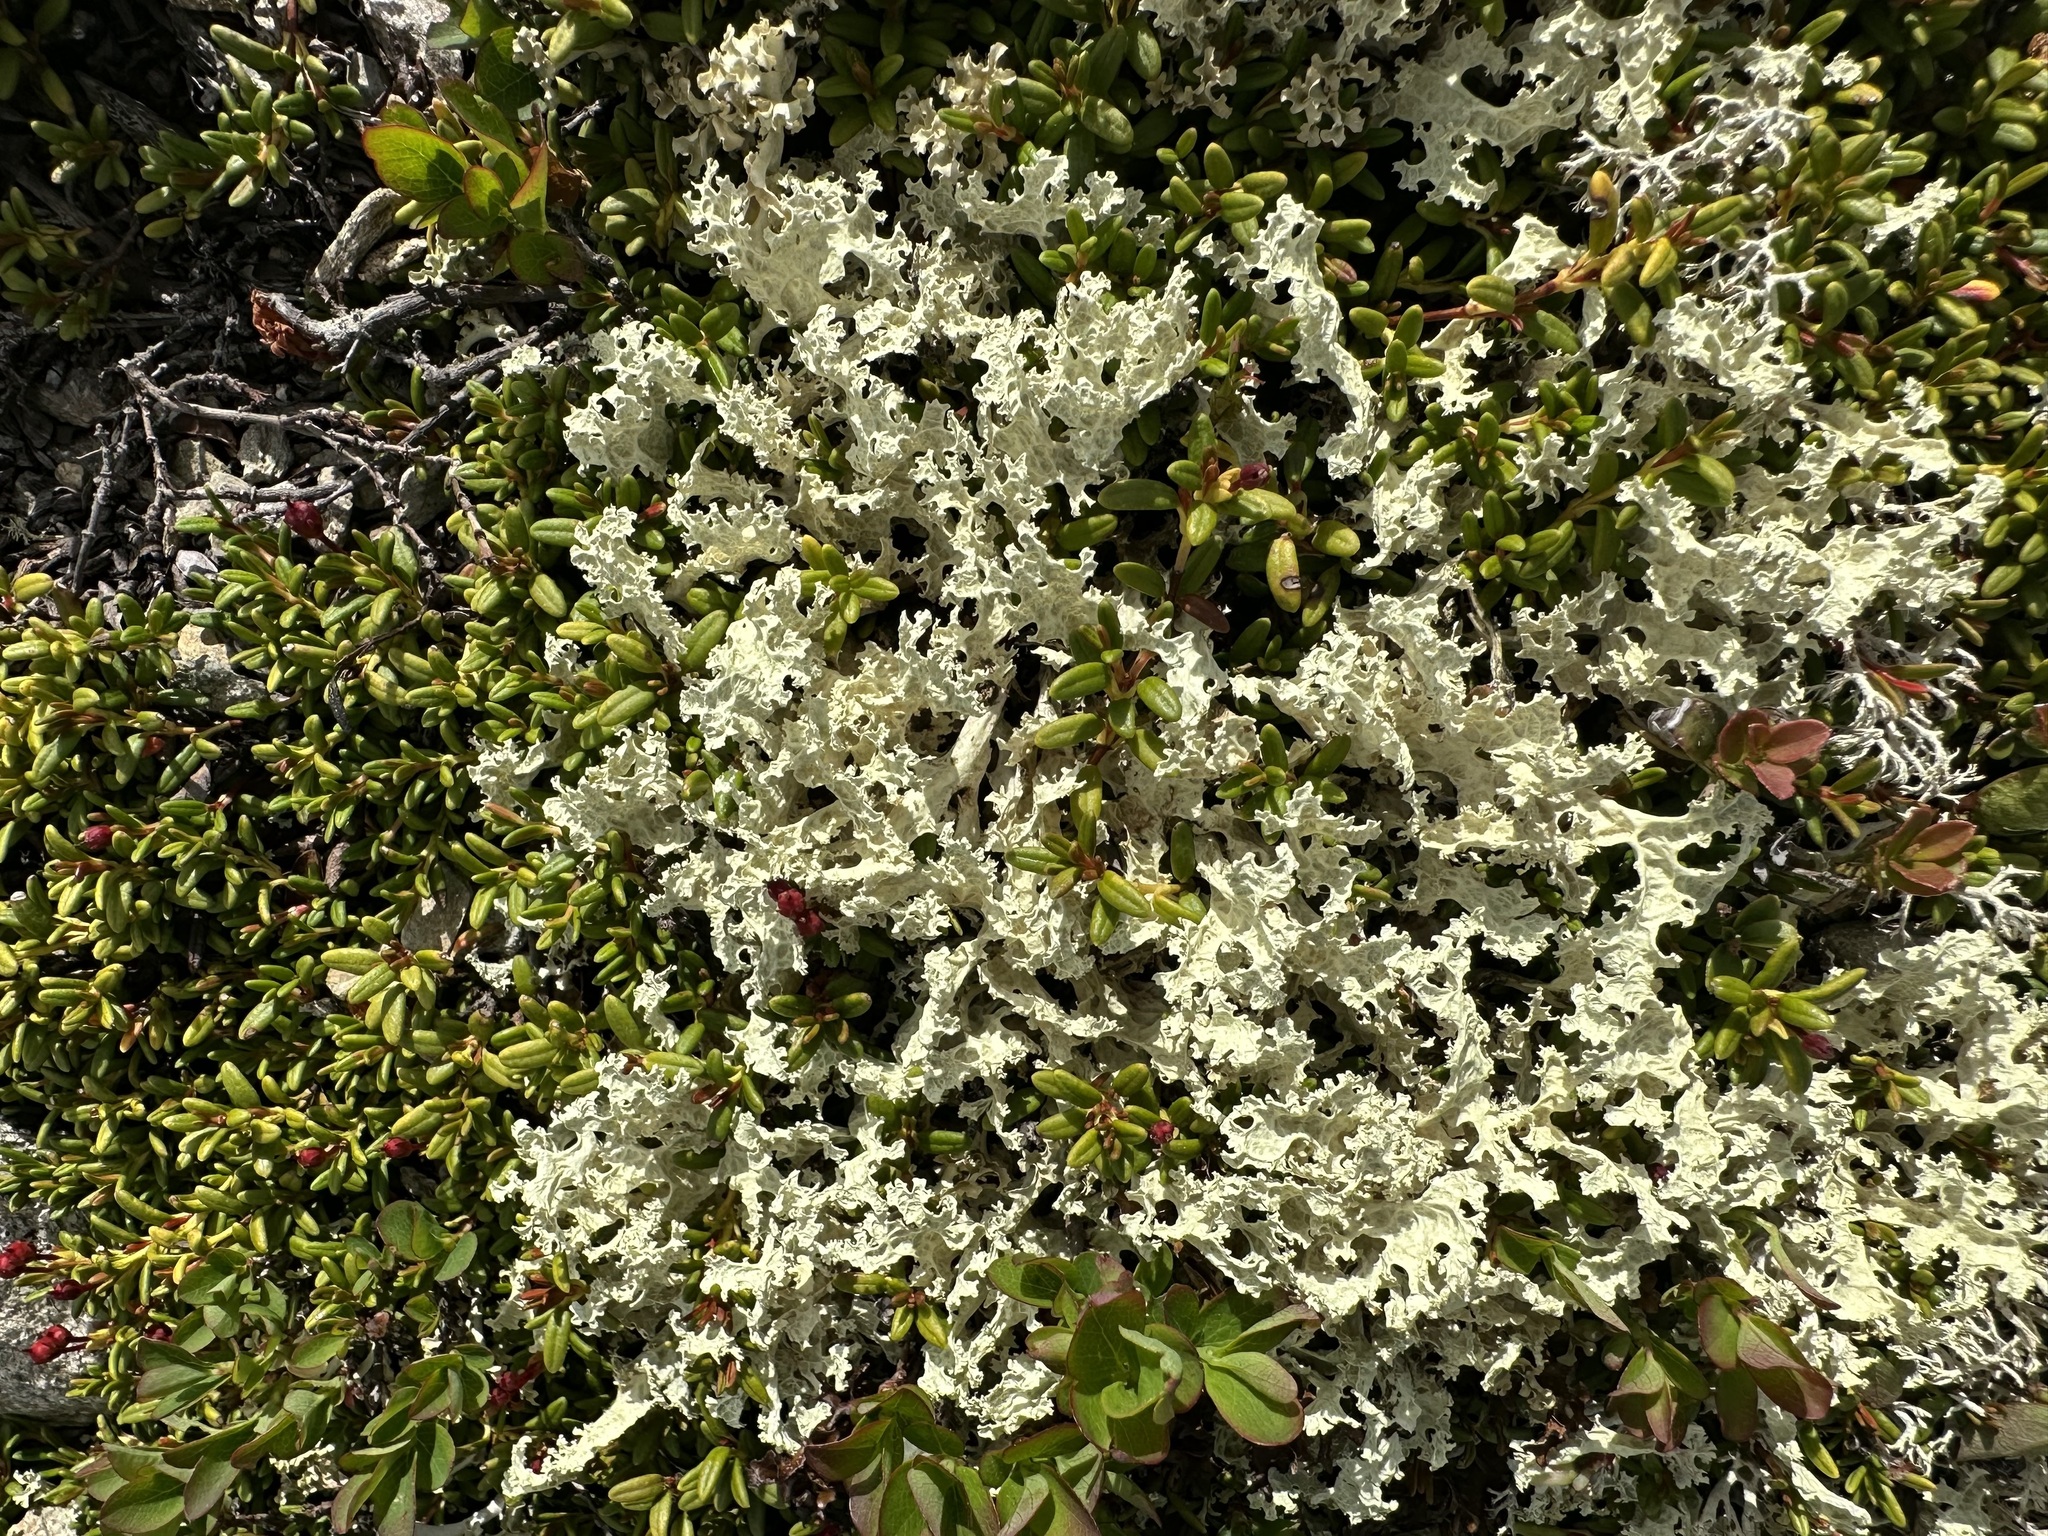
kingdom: Fungi
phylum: Ascomycota
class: Lecanoromycetes
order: Lecanorales
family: Parmeliaceae
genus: Nephromopsis
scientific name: Nephromopsis nivalis
